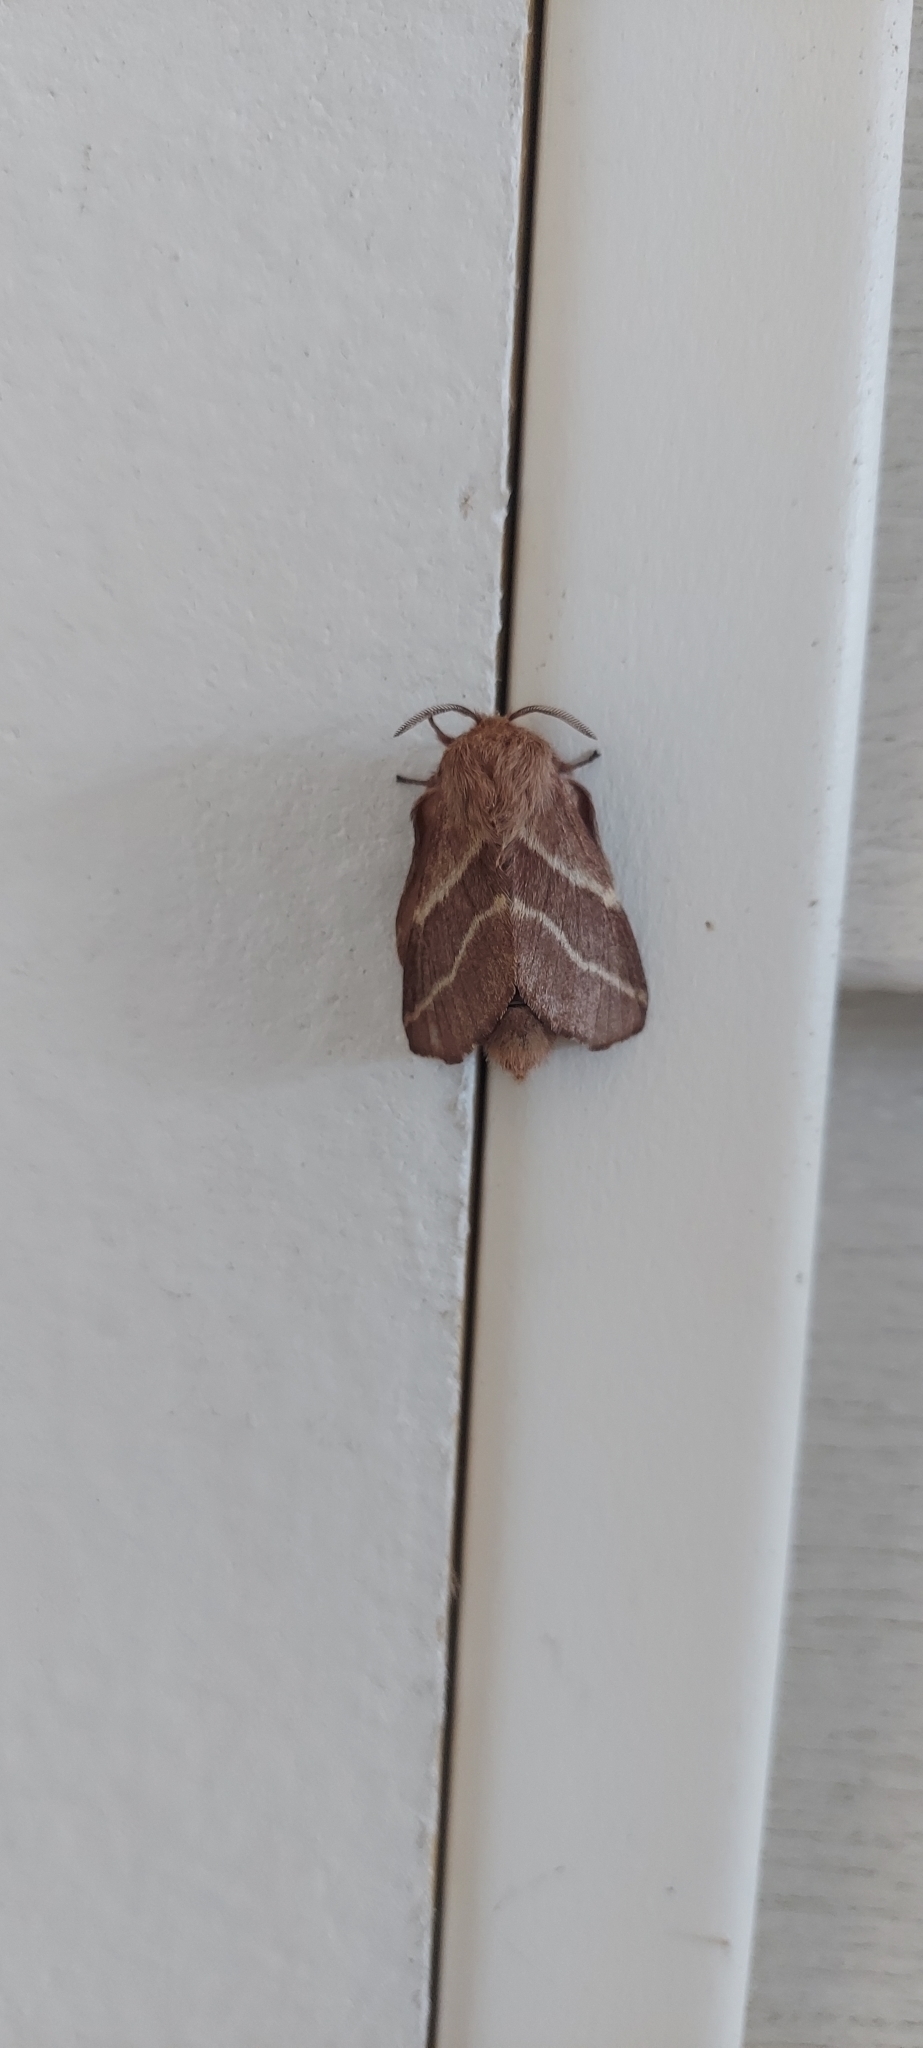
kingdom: Animalia
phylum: Arthropoda
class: Insecta
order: Lepidoptera
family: Lasiocampidae
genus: Malacosoma
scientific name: Malacosoma americana
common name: Eastern tent caterpillar moth
